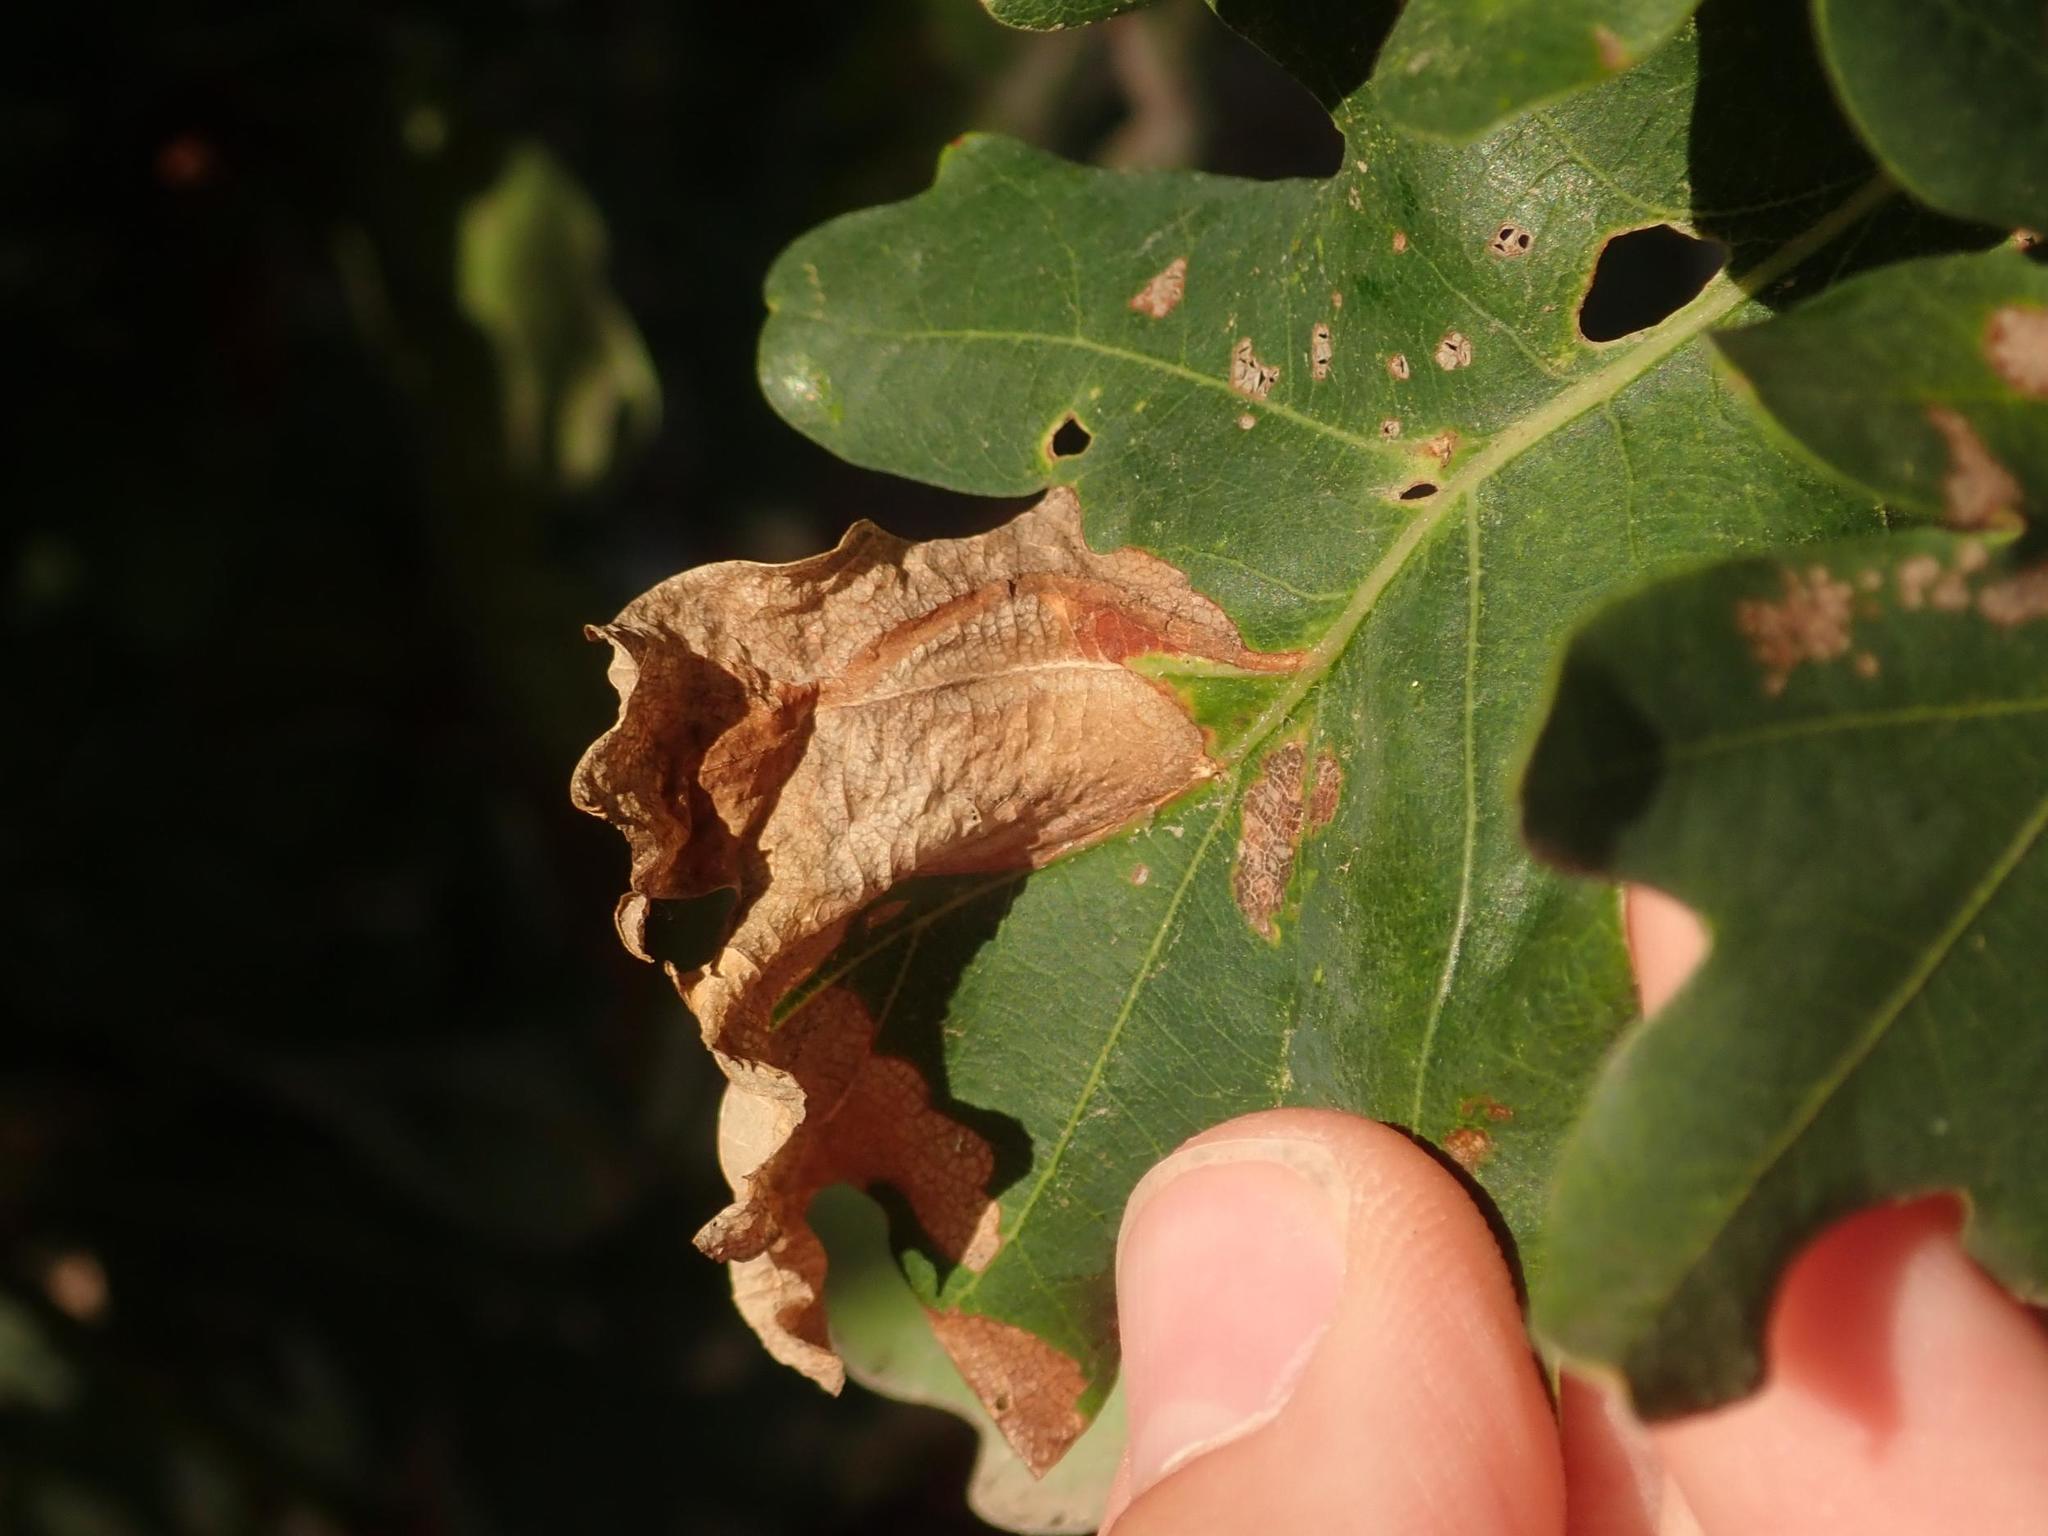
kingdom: Animalia
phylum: Arthropoda
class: Insecta
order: Coleoptera
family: Curculionidae
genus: Orchestes
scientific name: Orchestes quercus
